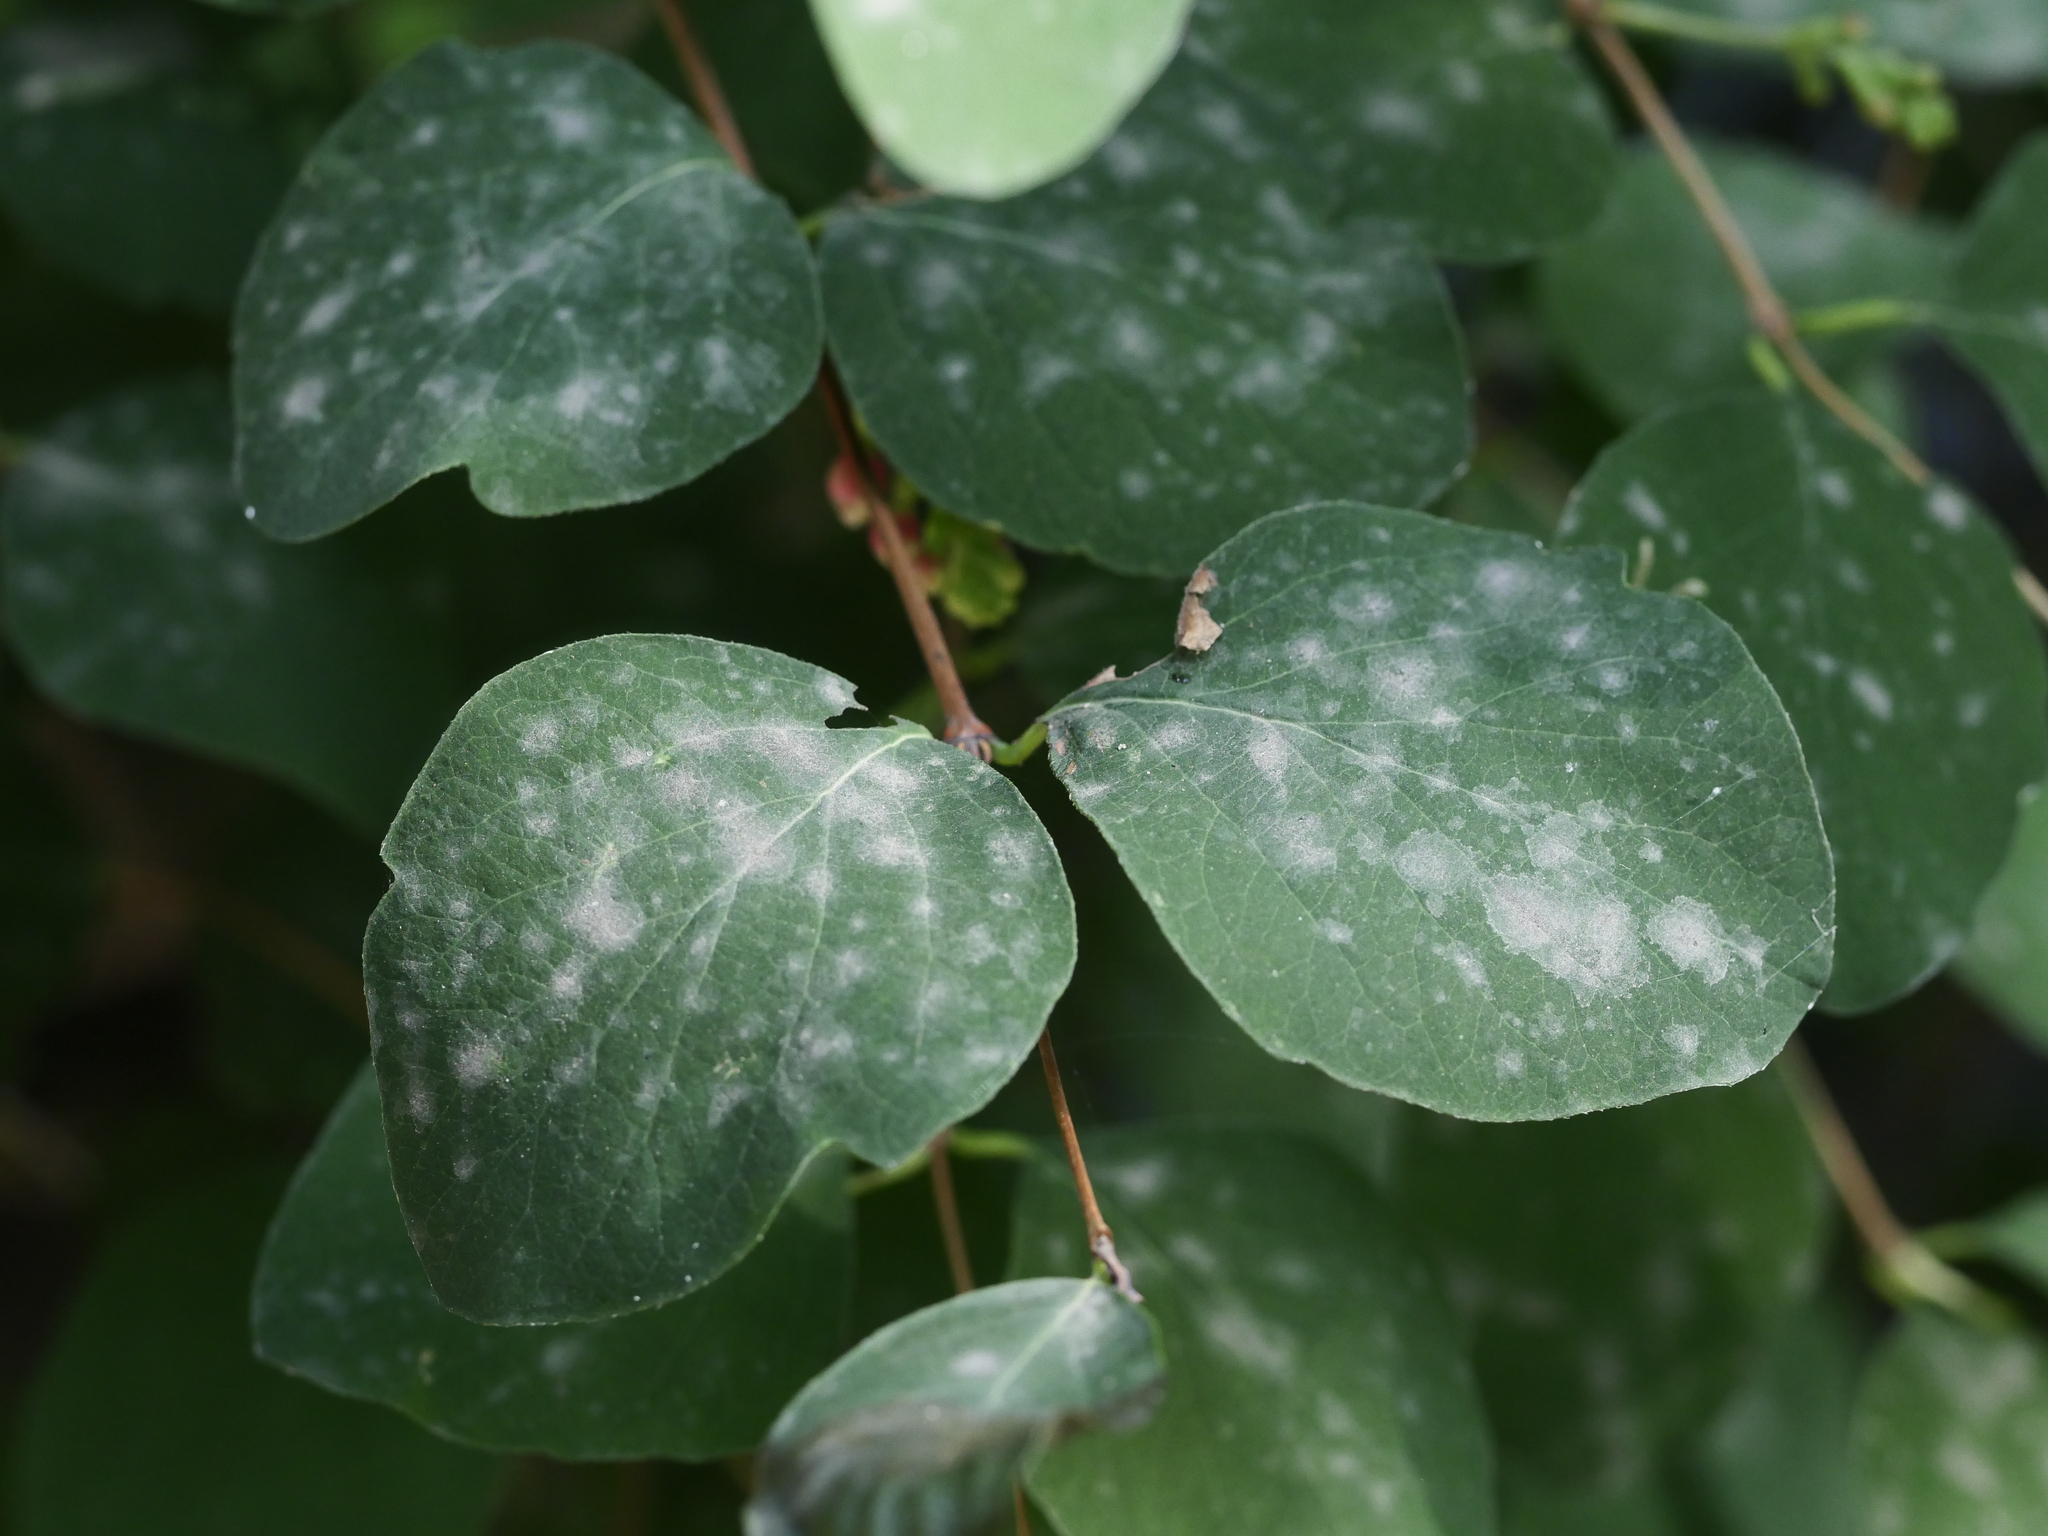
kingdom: Plantae
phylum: Tracheophyta
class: Magnoliopsida
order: Dipsacales
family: Caprifoliaceae
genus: Symphoricarpos
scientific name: Symphoricarpos albus
